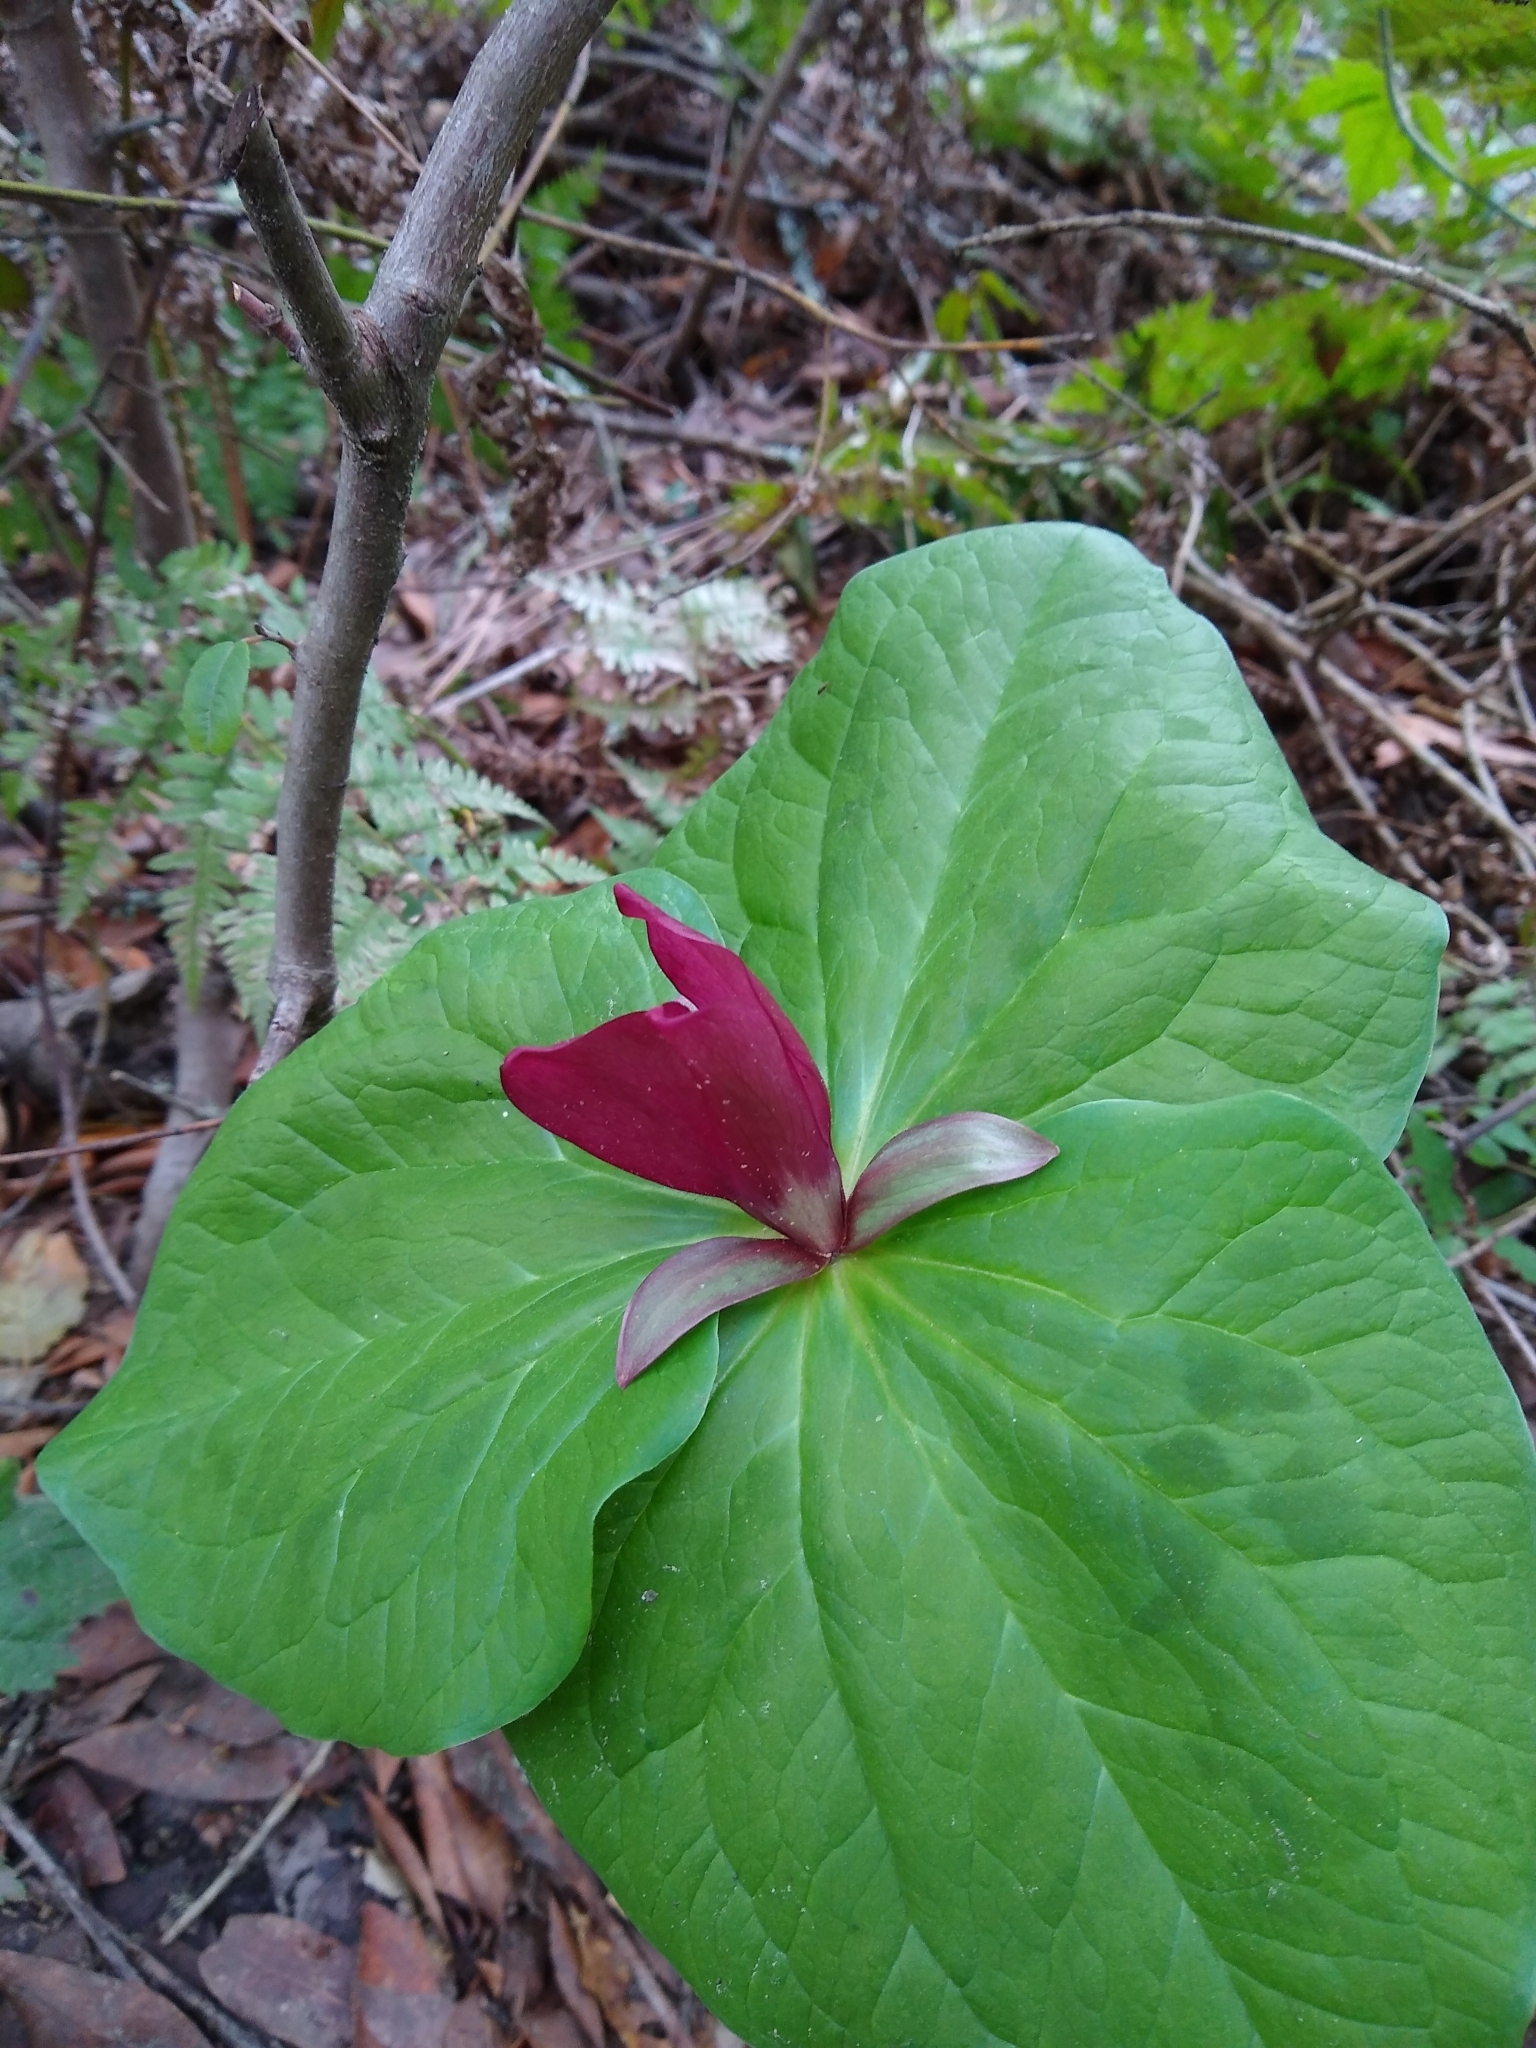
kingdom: Plantae
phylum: Tracheophyta
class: Liliopsida
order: Liliales
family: Melanthiaceae
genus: Trillium
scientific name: Trillium chloropetalum
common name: Giant trillium
